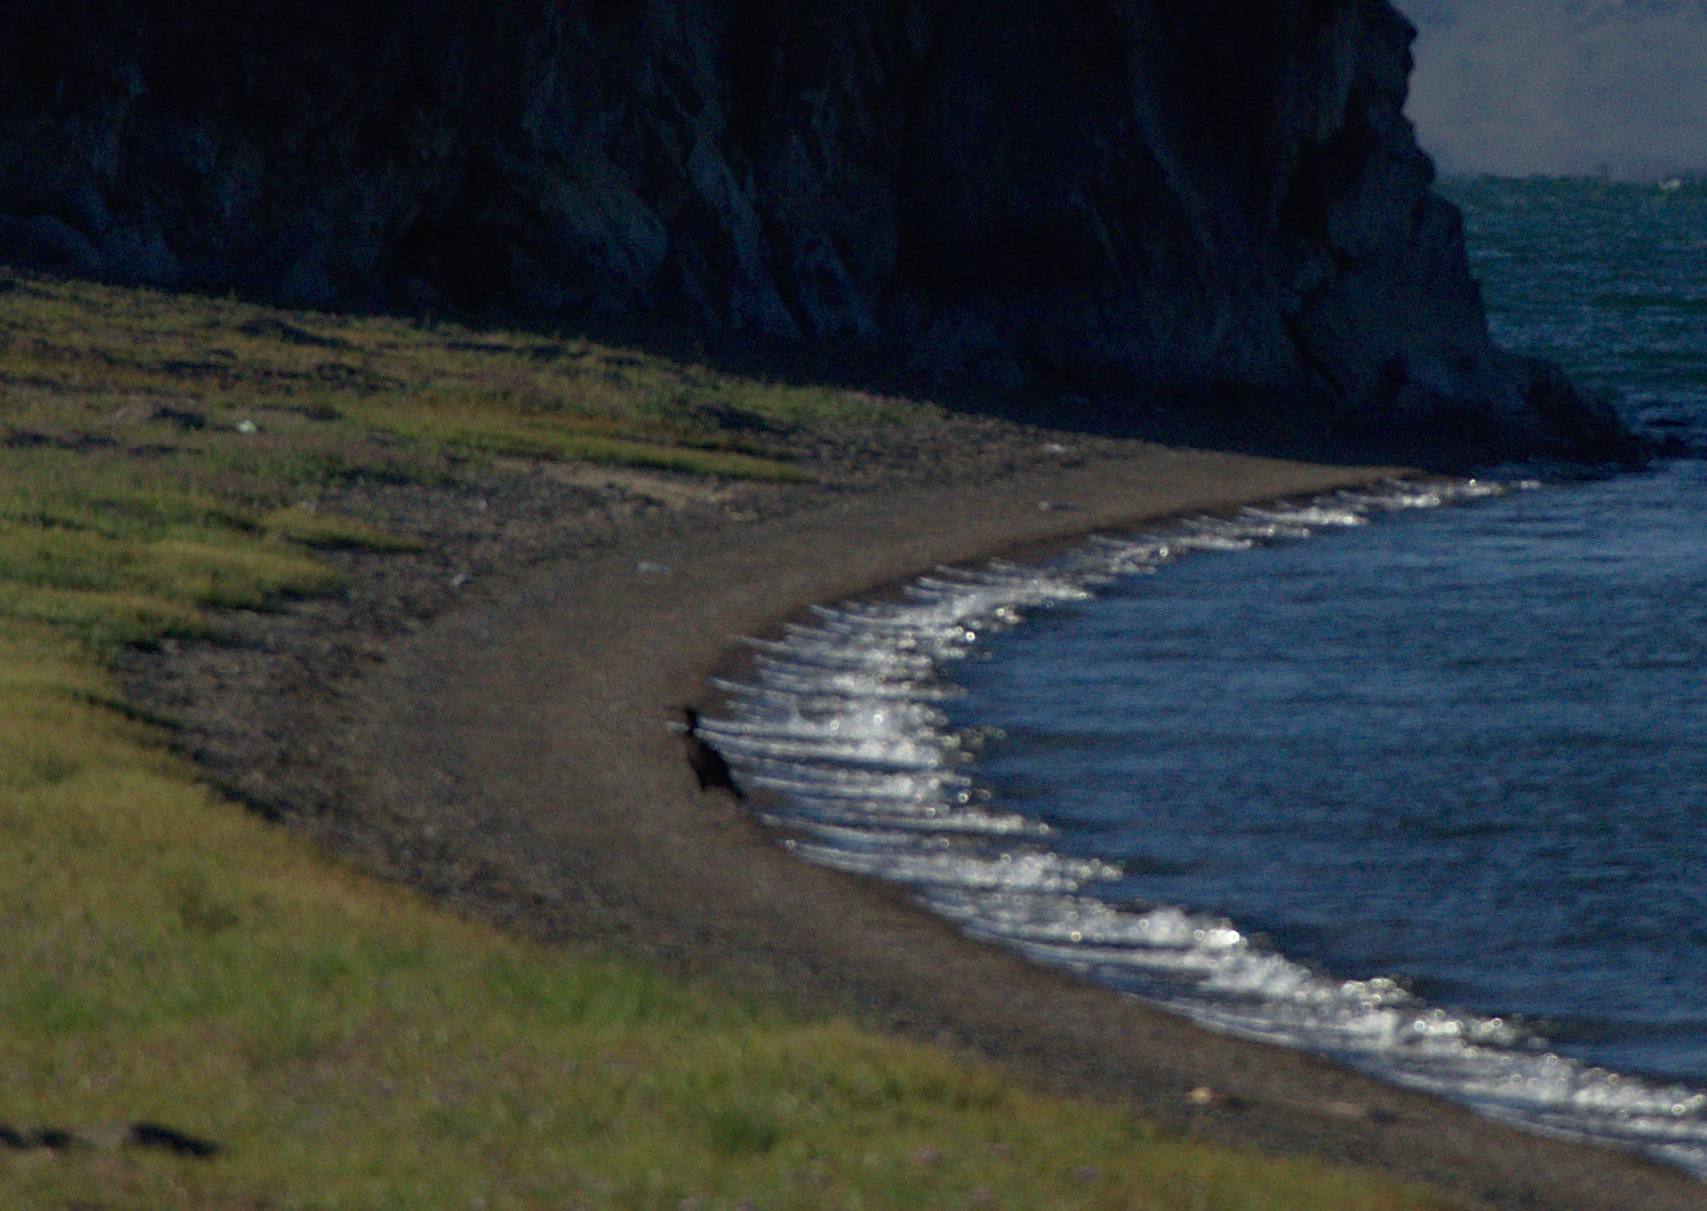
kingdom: Animalia
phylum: Chordata
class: Aves
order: Suliformes
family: Phalacrocoracidae
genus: Phalacrocorax
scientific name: Phalacrocorax carbo
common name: Great cormorant
